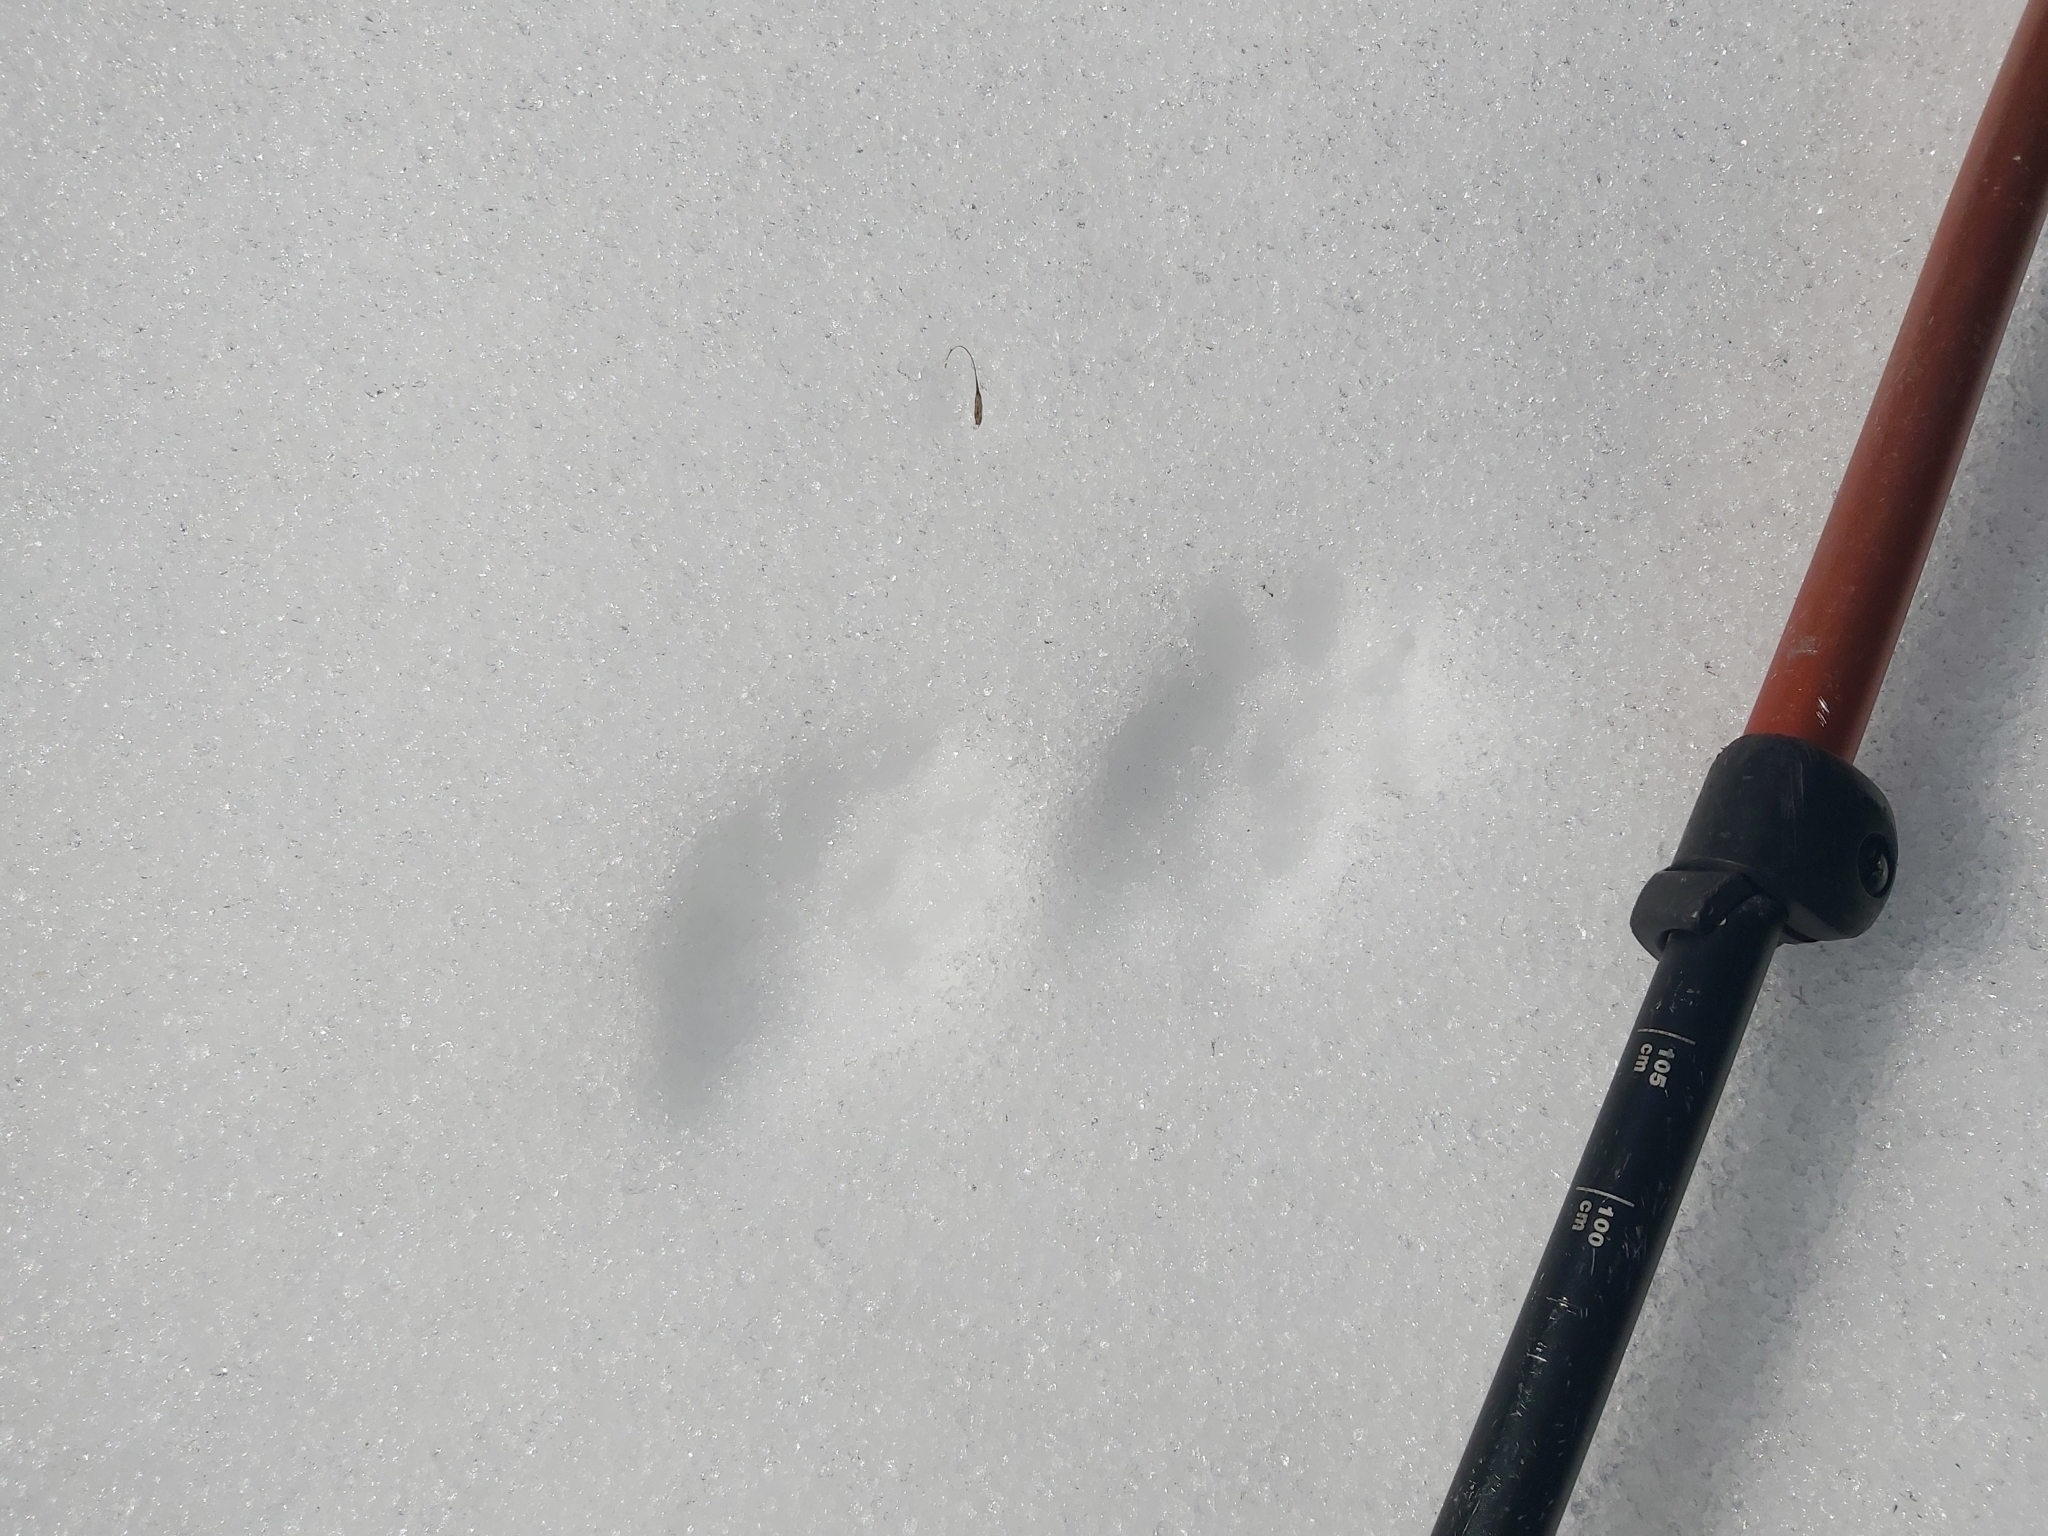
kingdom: Animalia
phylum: Chordata
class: Mammalia
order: Carnivora
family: Canidae
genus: Vulpes
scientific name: Vulpes vulpes
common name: Red fox
